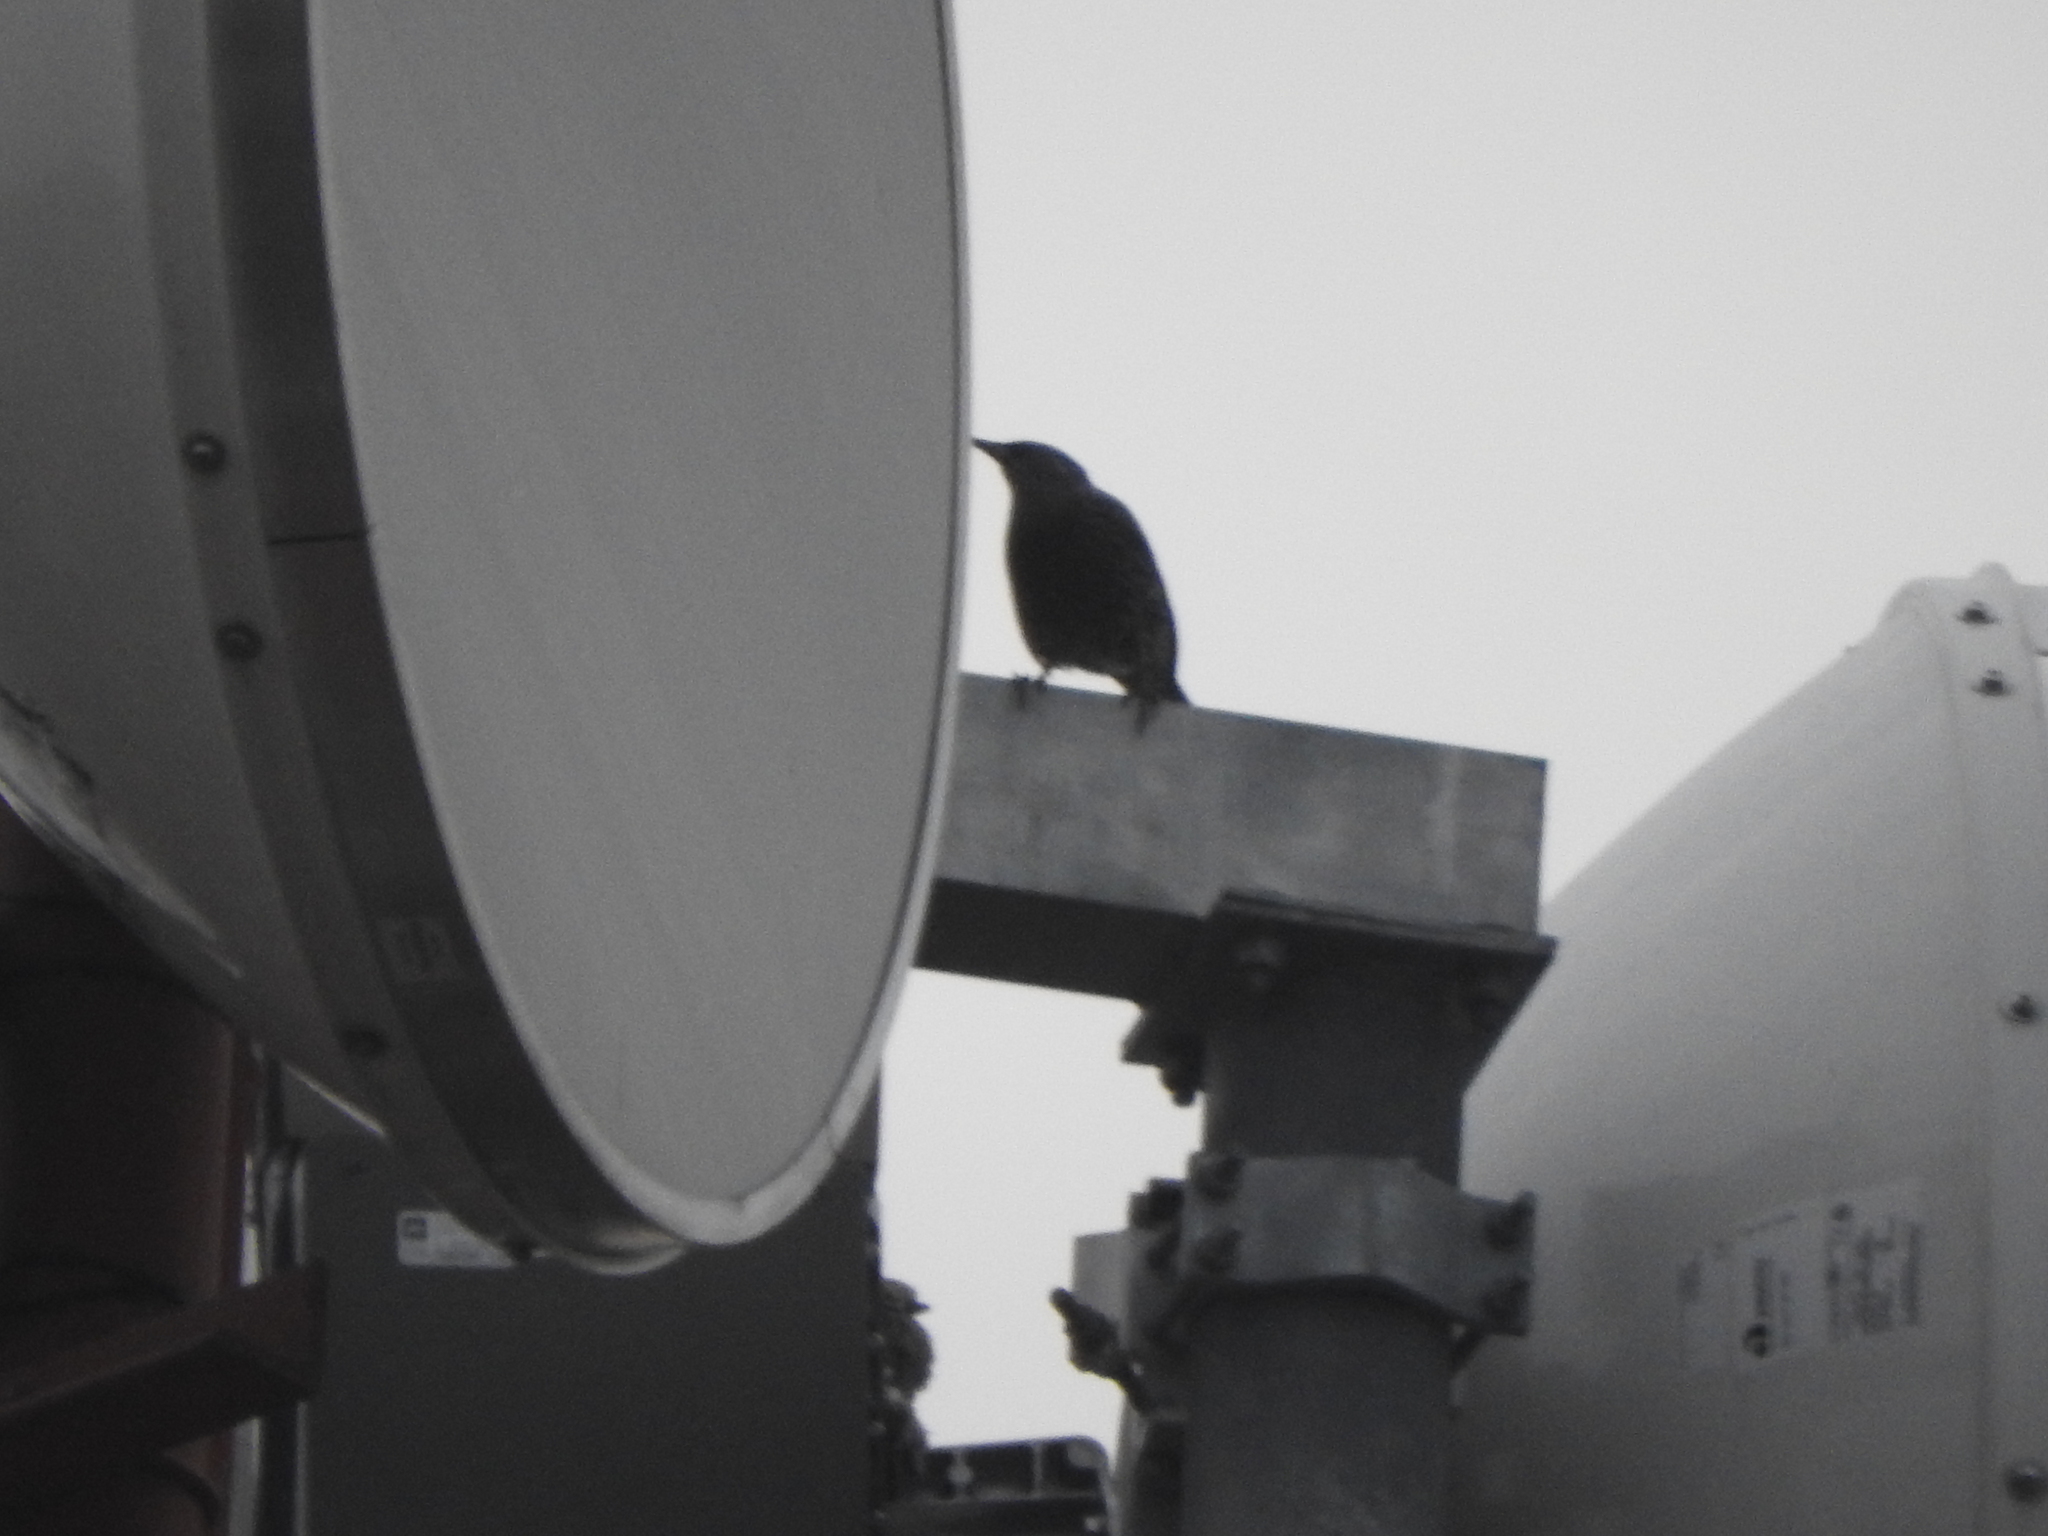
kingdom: Animalia
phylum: Chordata
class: Aves
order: Passeriformes
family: Sturnidae
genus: Sturnus
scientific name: Sturnus vulgaris
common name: Common starling
